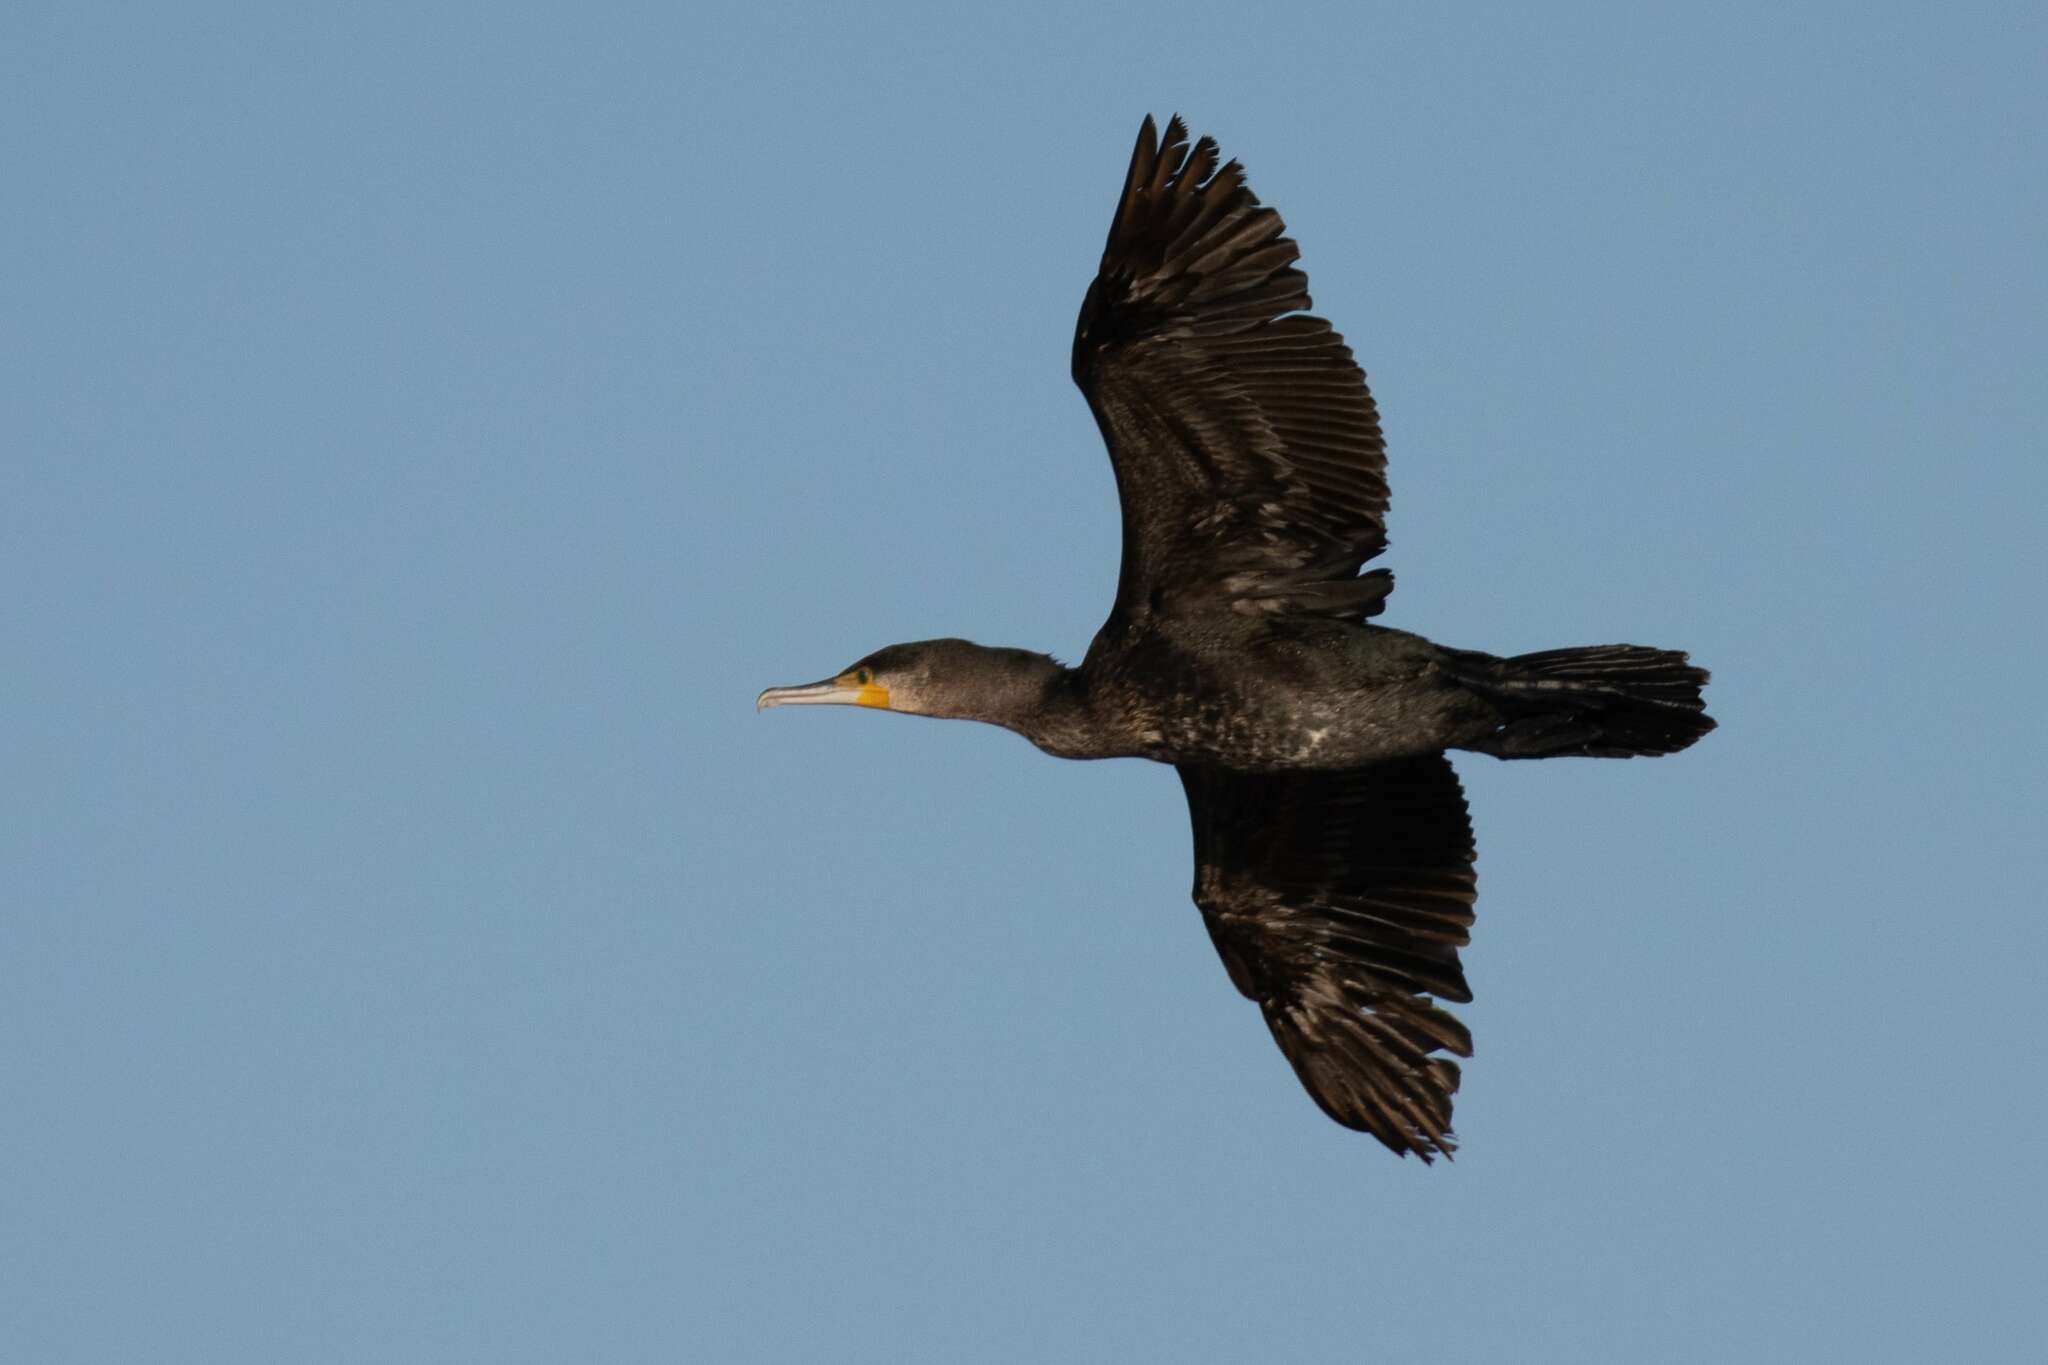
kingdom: Animalia
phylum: Chordata
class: Aves
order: Suliformes
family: Phalacrocoracidae
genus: Phalacrocorax
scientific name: Phalacrocorax carbo
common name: Great cormorant
